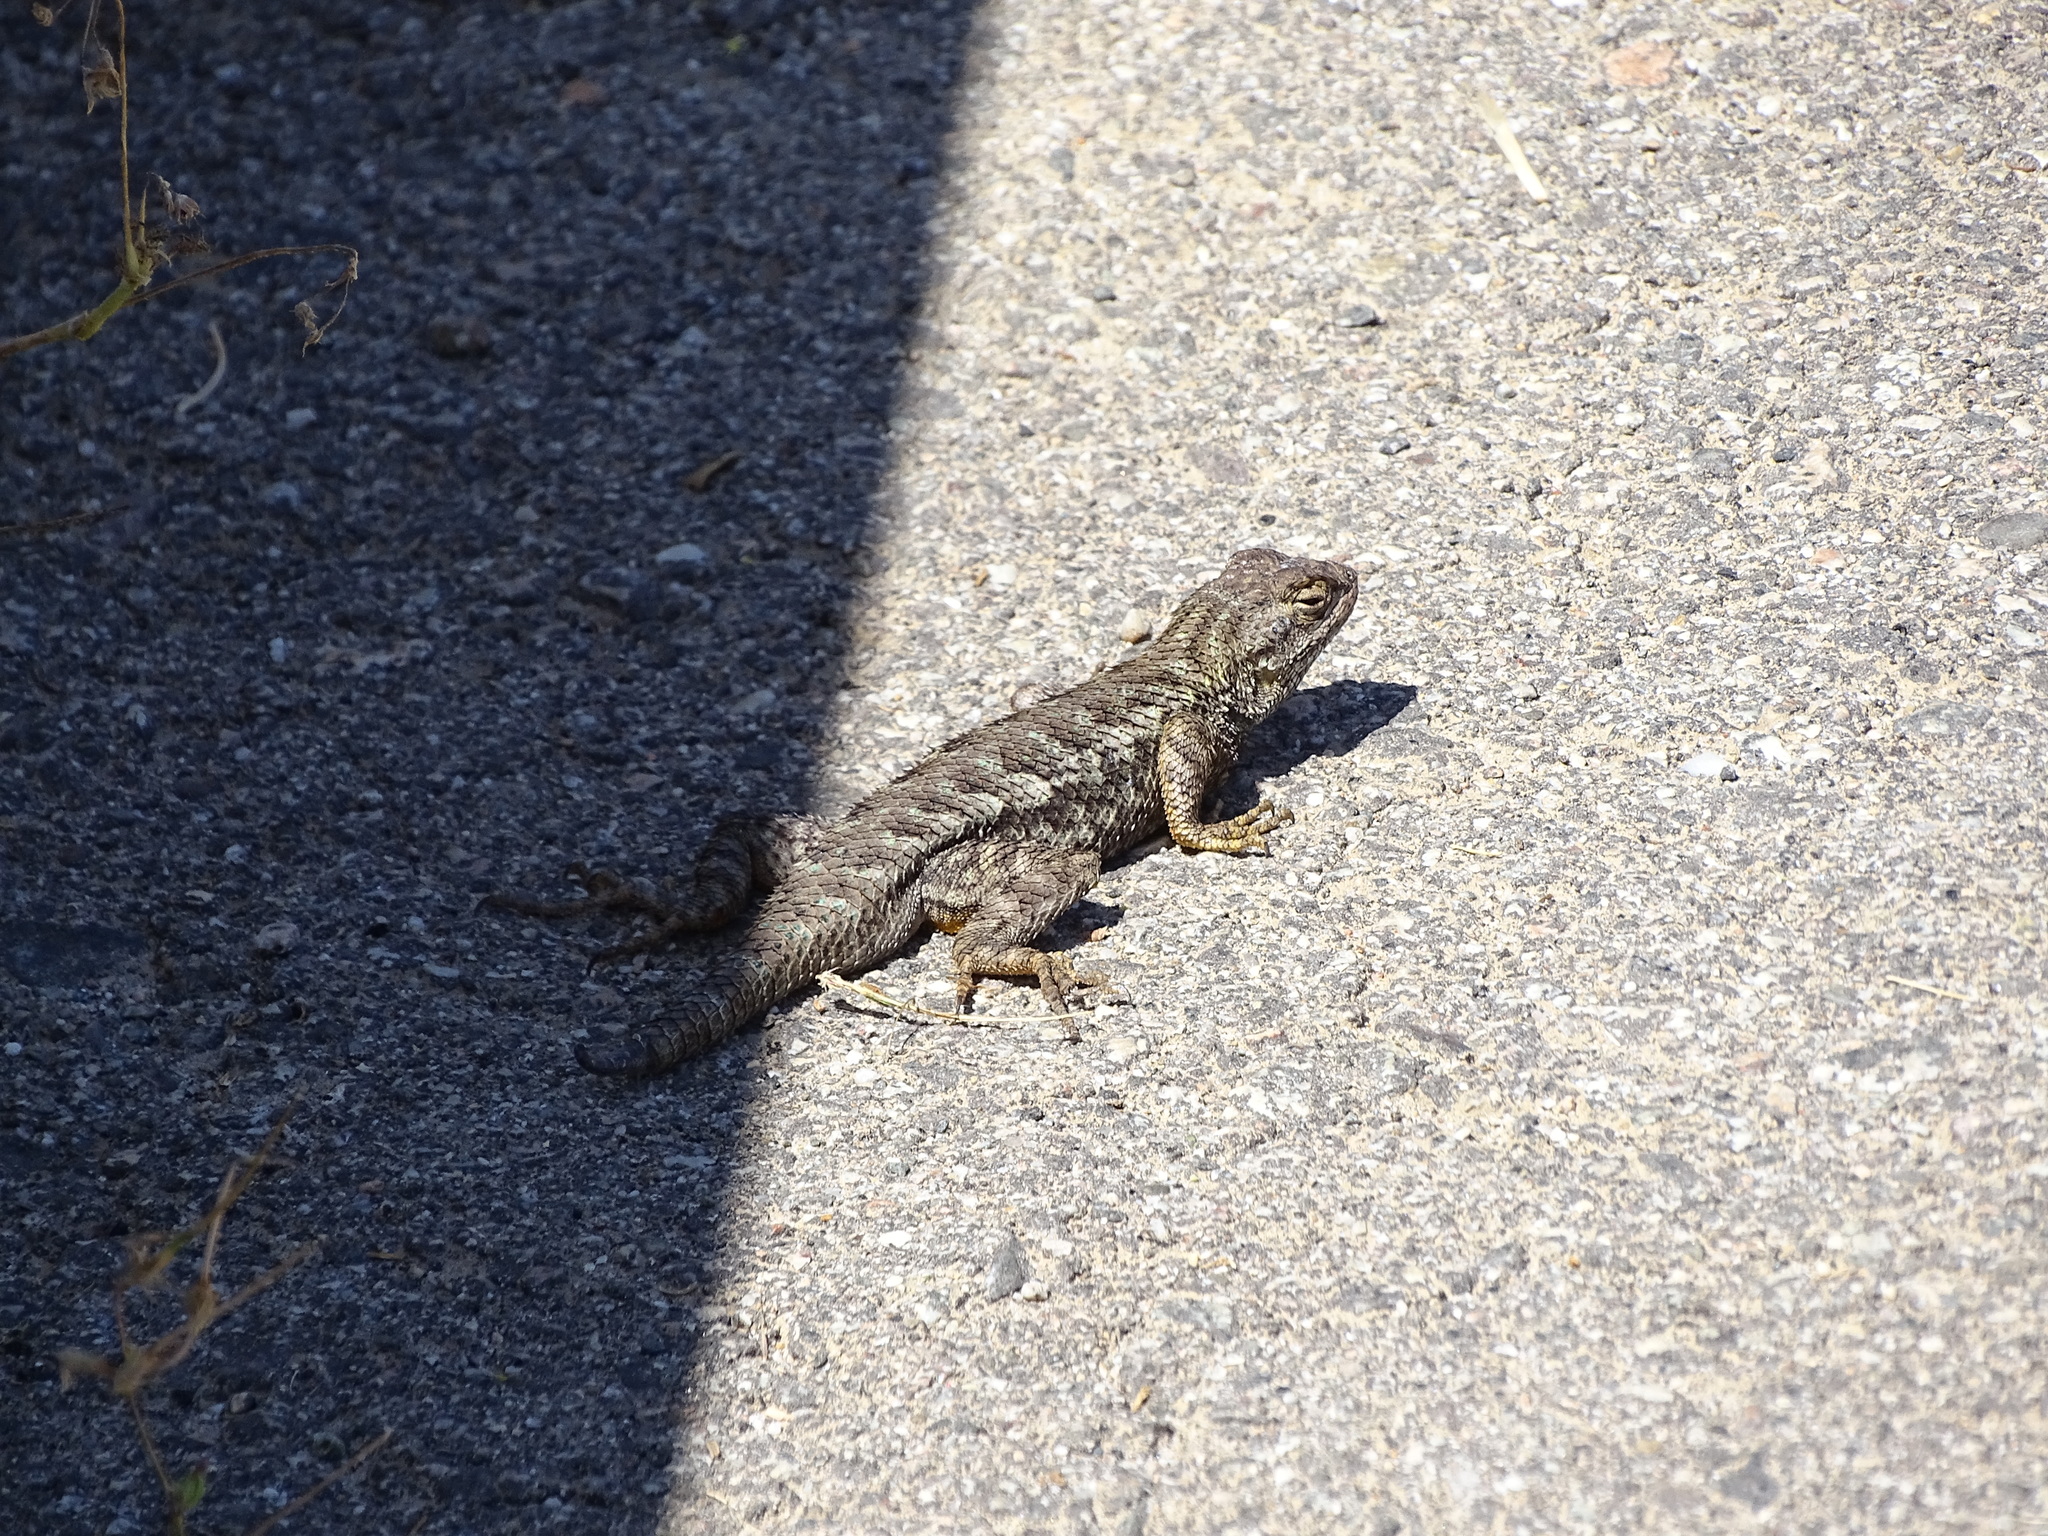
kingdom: Animalia
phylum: Chordata
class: Squamata
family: Phrynosomatidae
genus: Sceloporus
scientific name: Sceloporus occidentalis
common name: Western fence lizard
